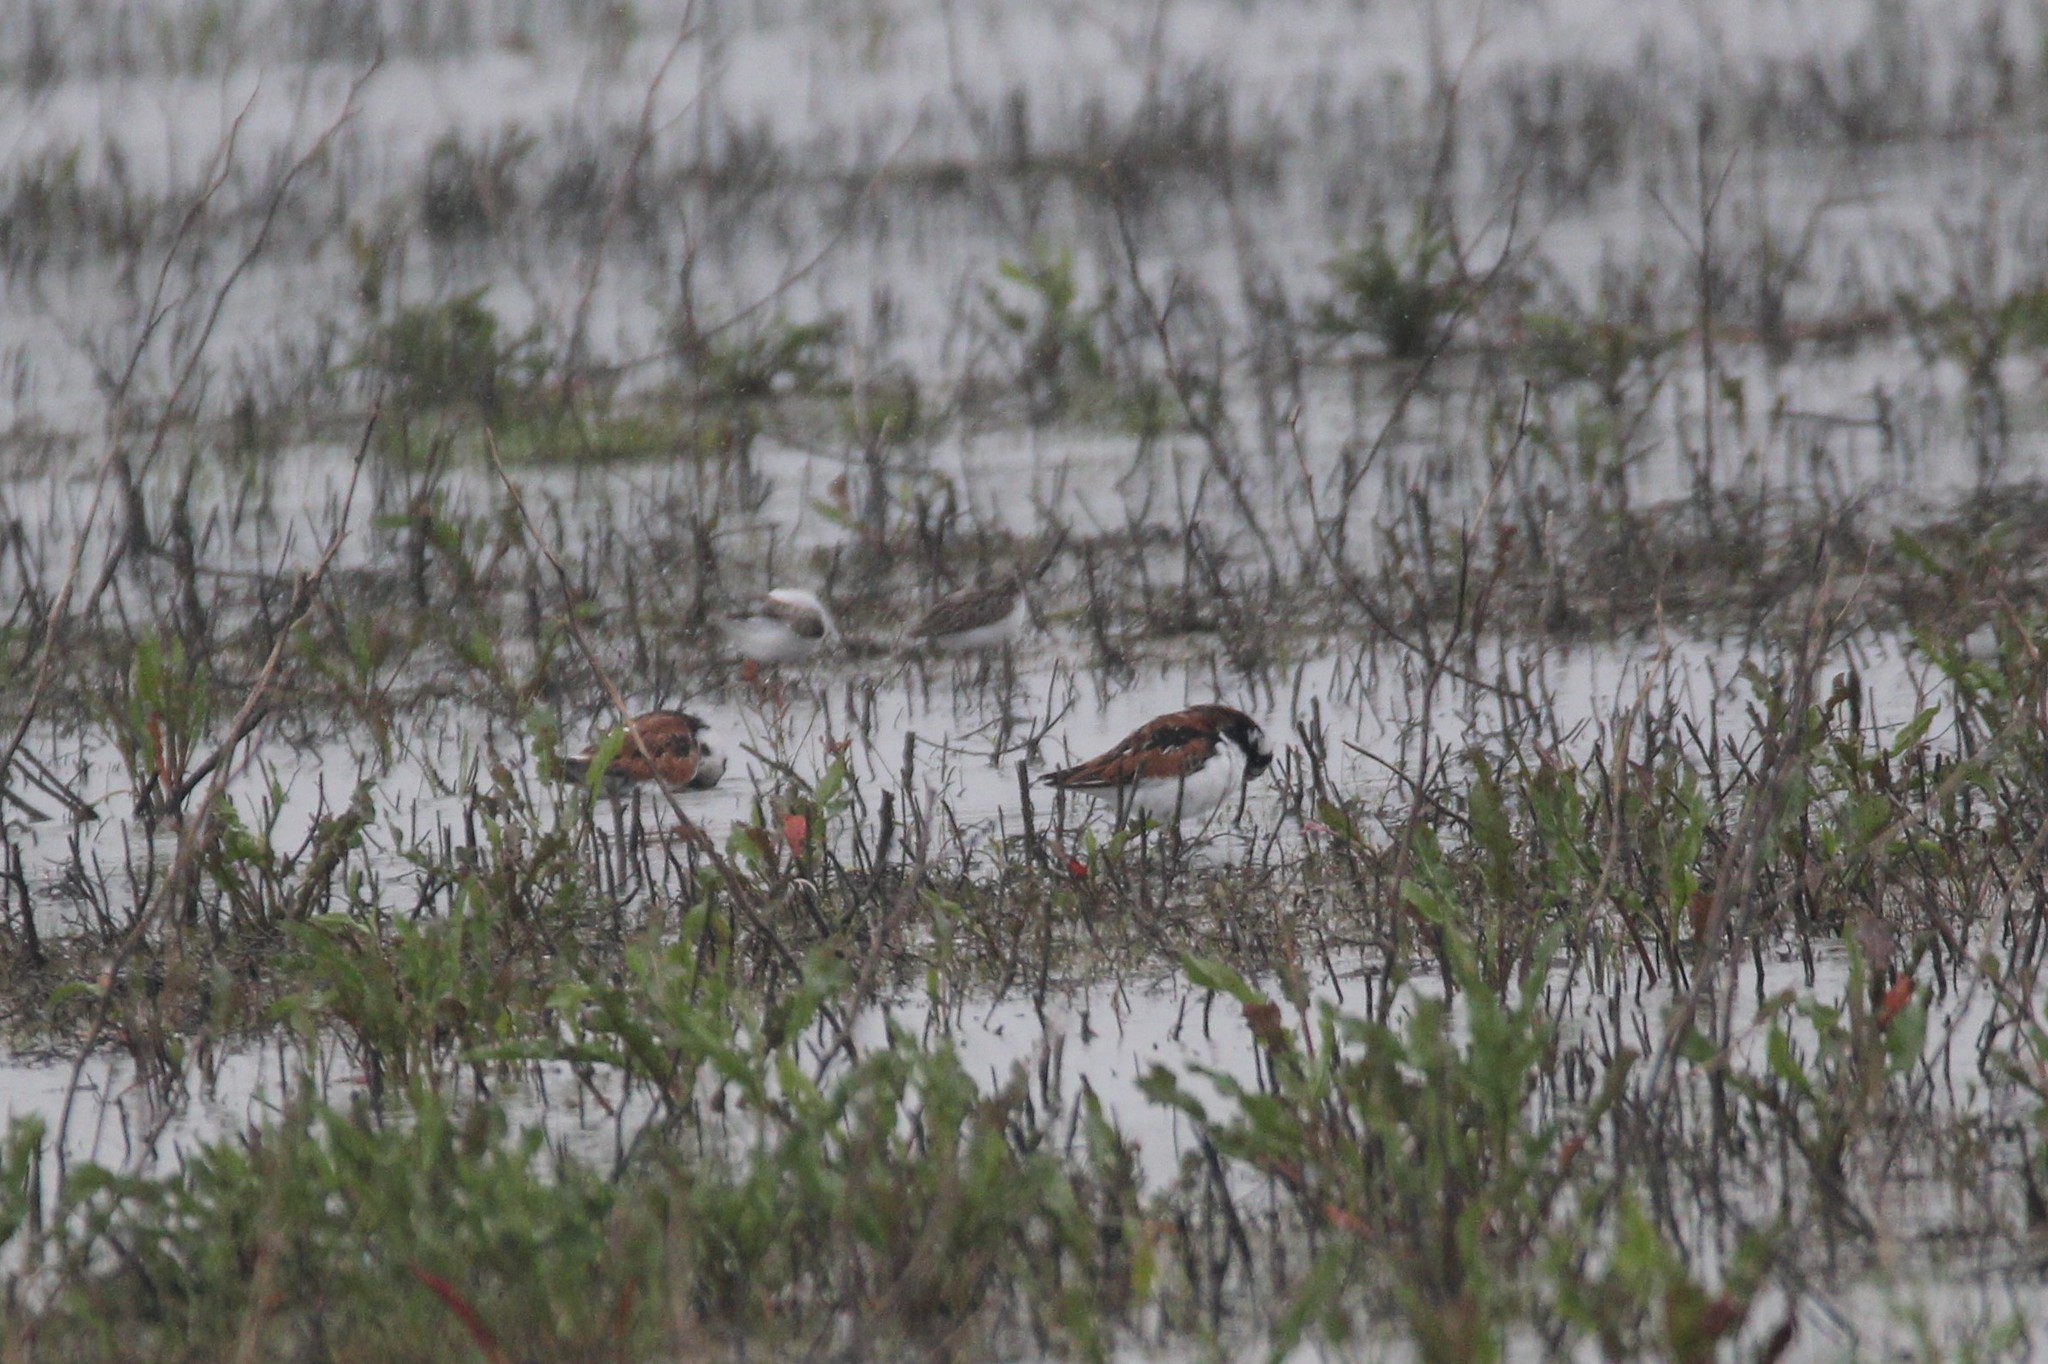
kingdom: Animalia
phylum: Chordata
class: Aves
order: Charadriiformes
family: Scolopacidae
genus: Arenaria
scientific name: Arenaria interpres
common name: Ruddy turnstone
